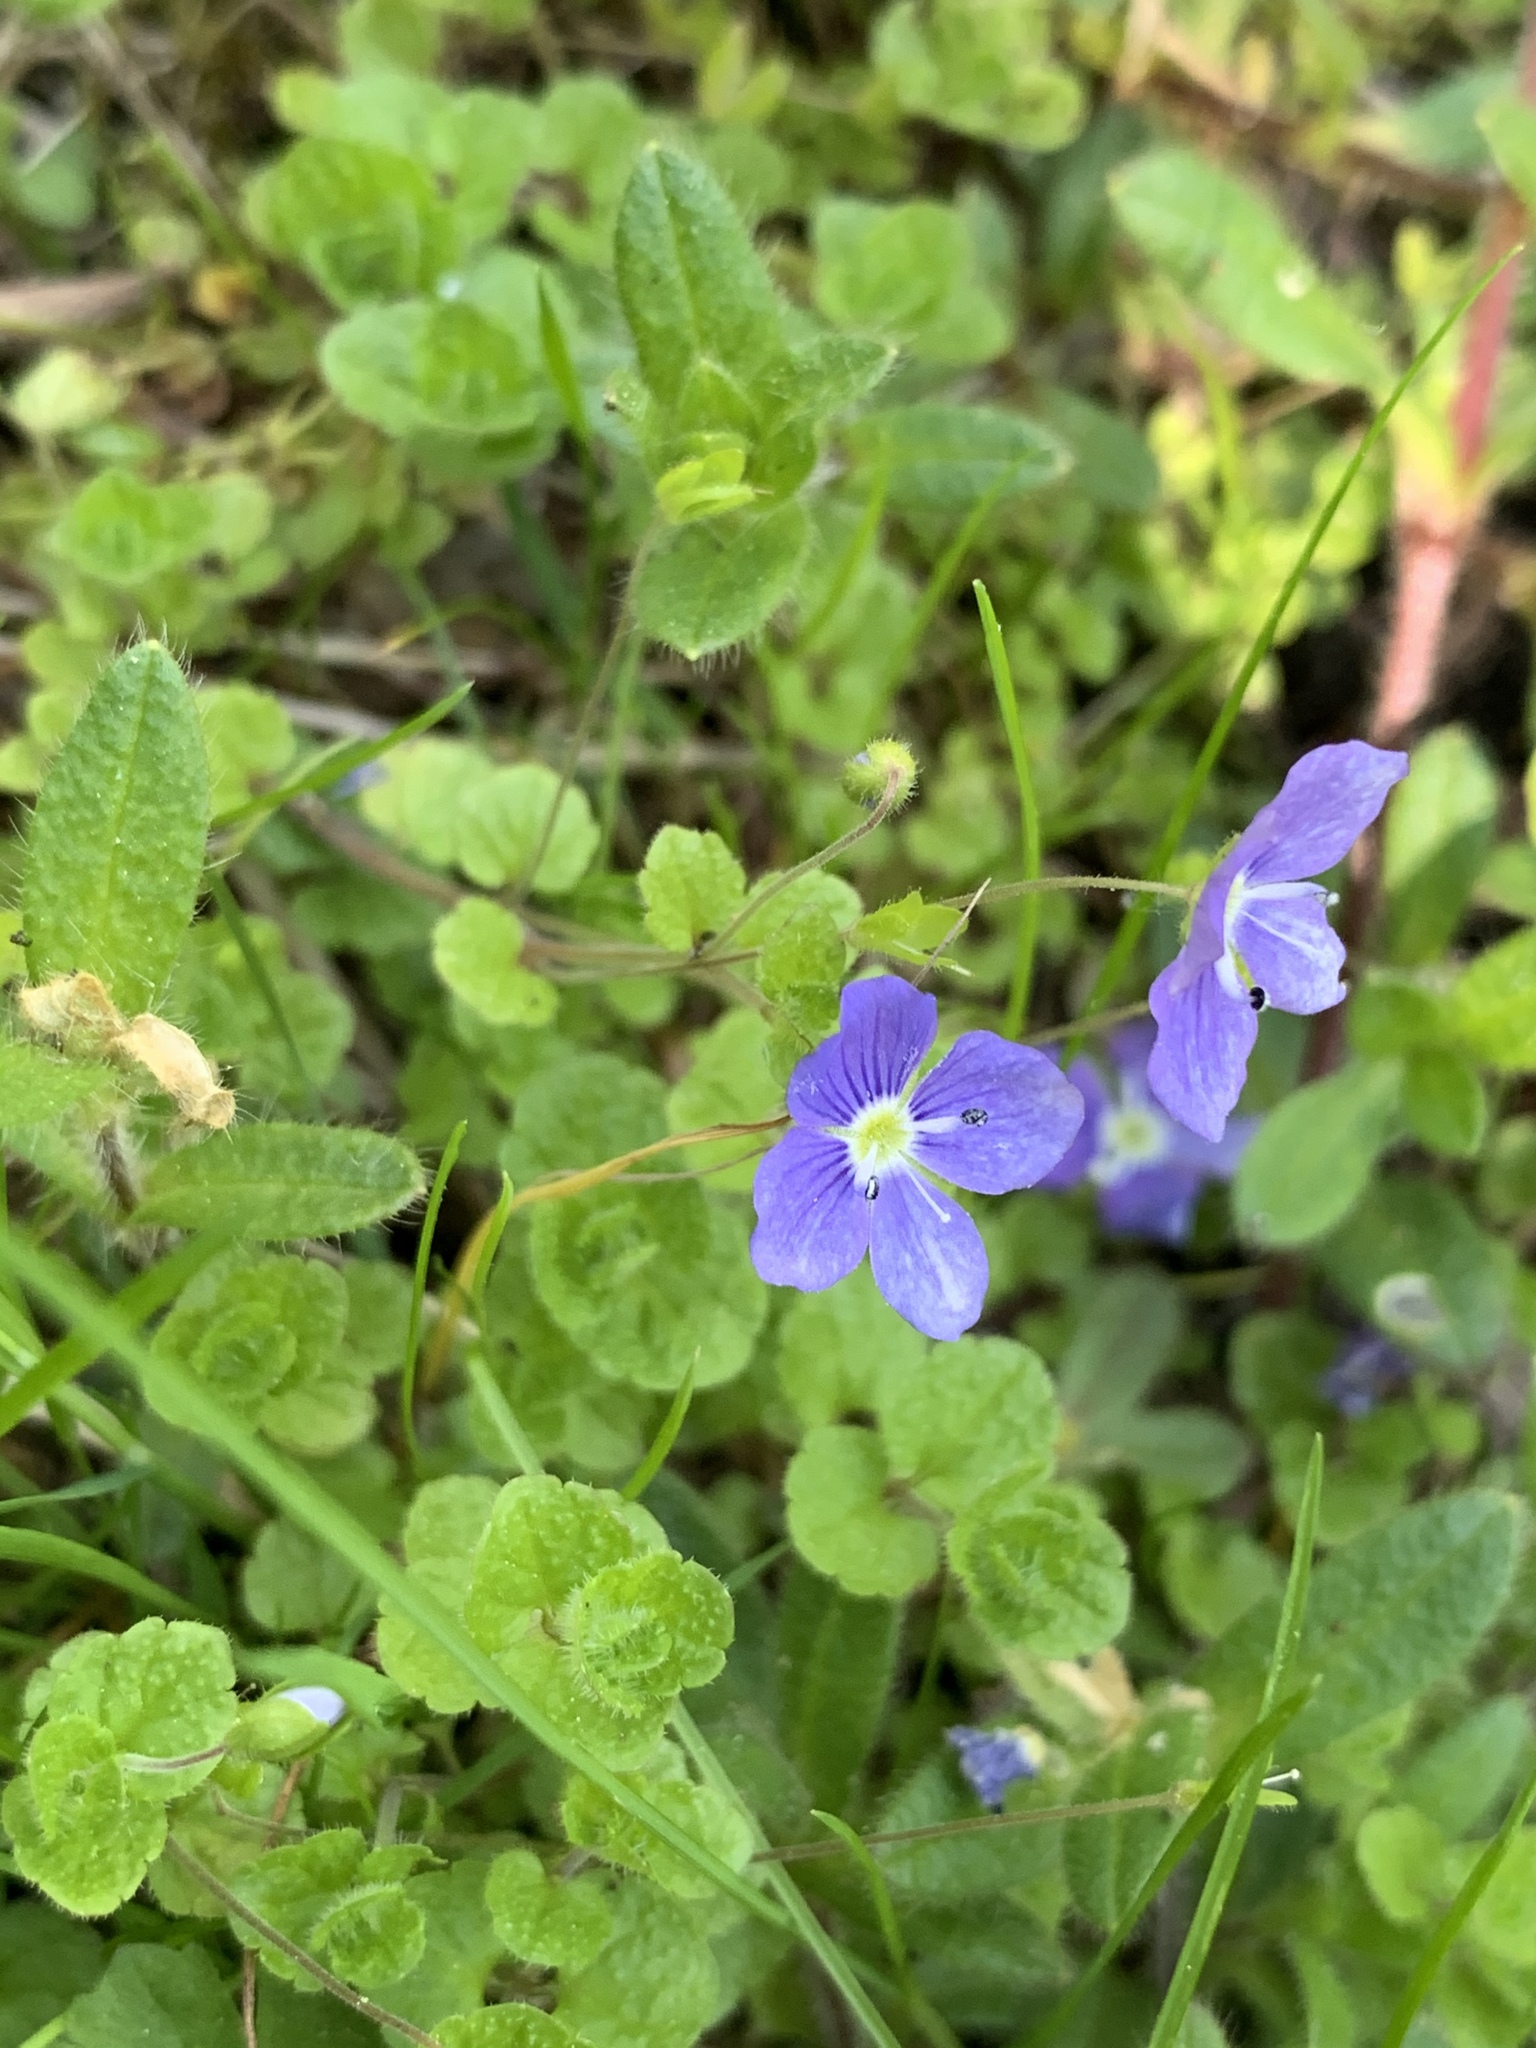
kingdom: Plantae
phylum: Tracheophyta
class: Magnoliopsida
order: Lamiales
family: Plantaginaceae
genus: Veronica
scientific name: Veronica filiformis
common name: Slender speedwell
